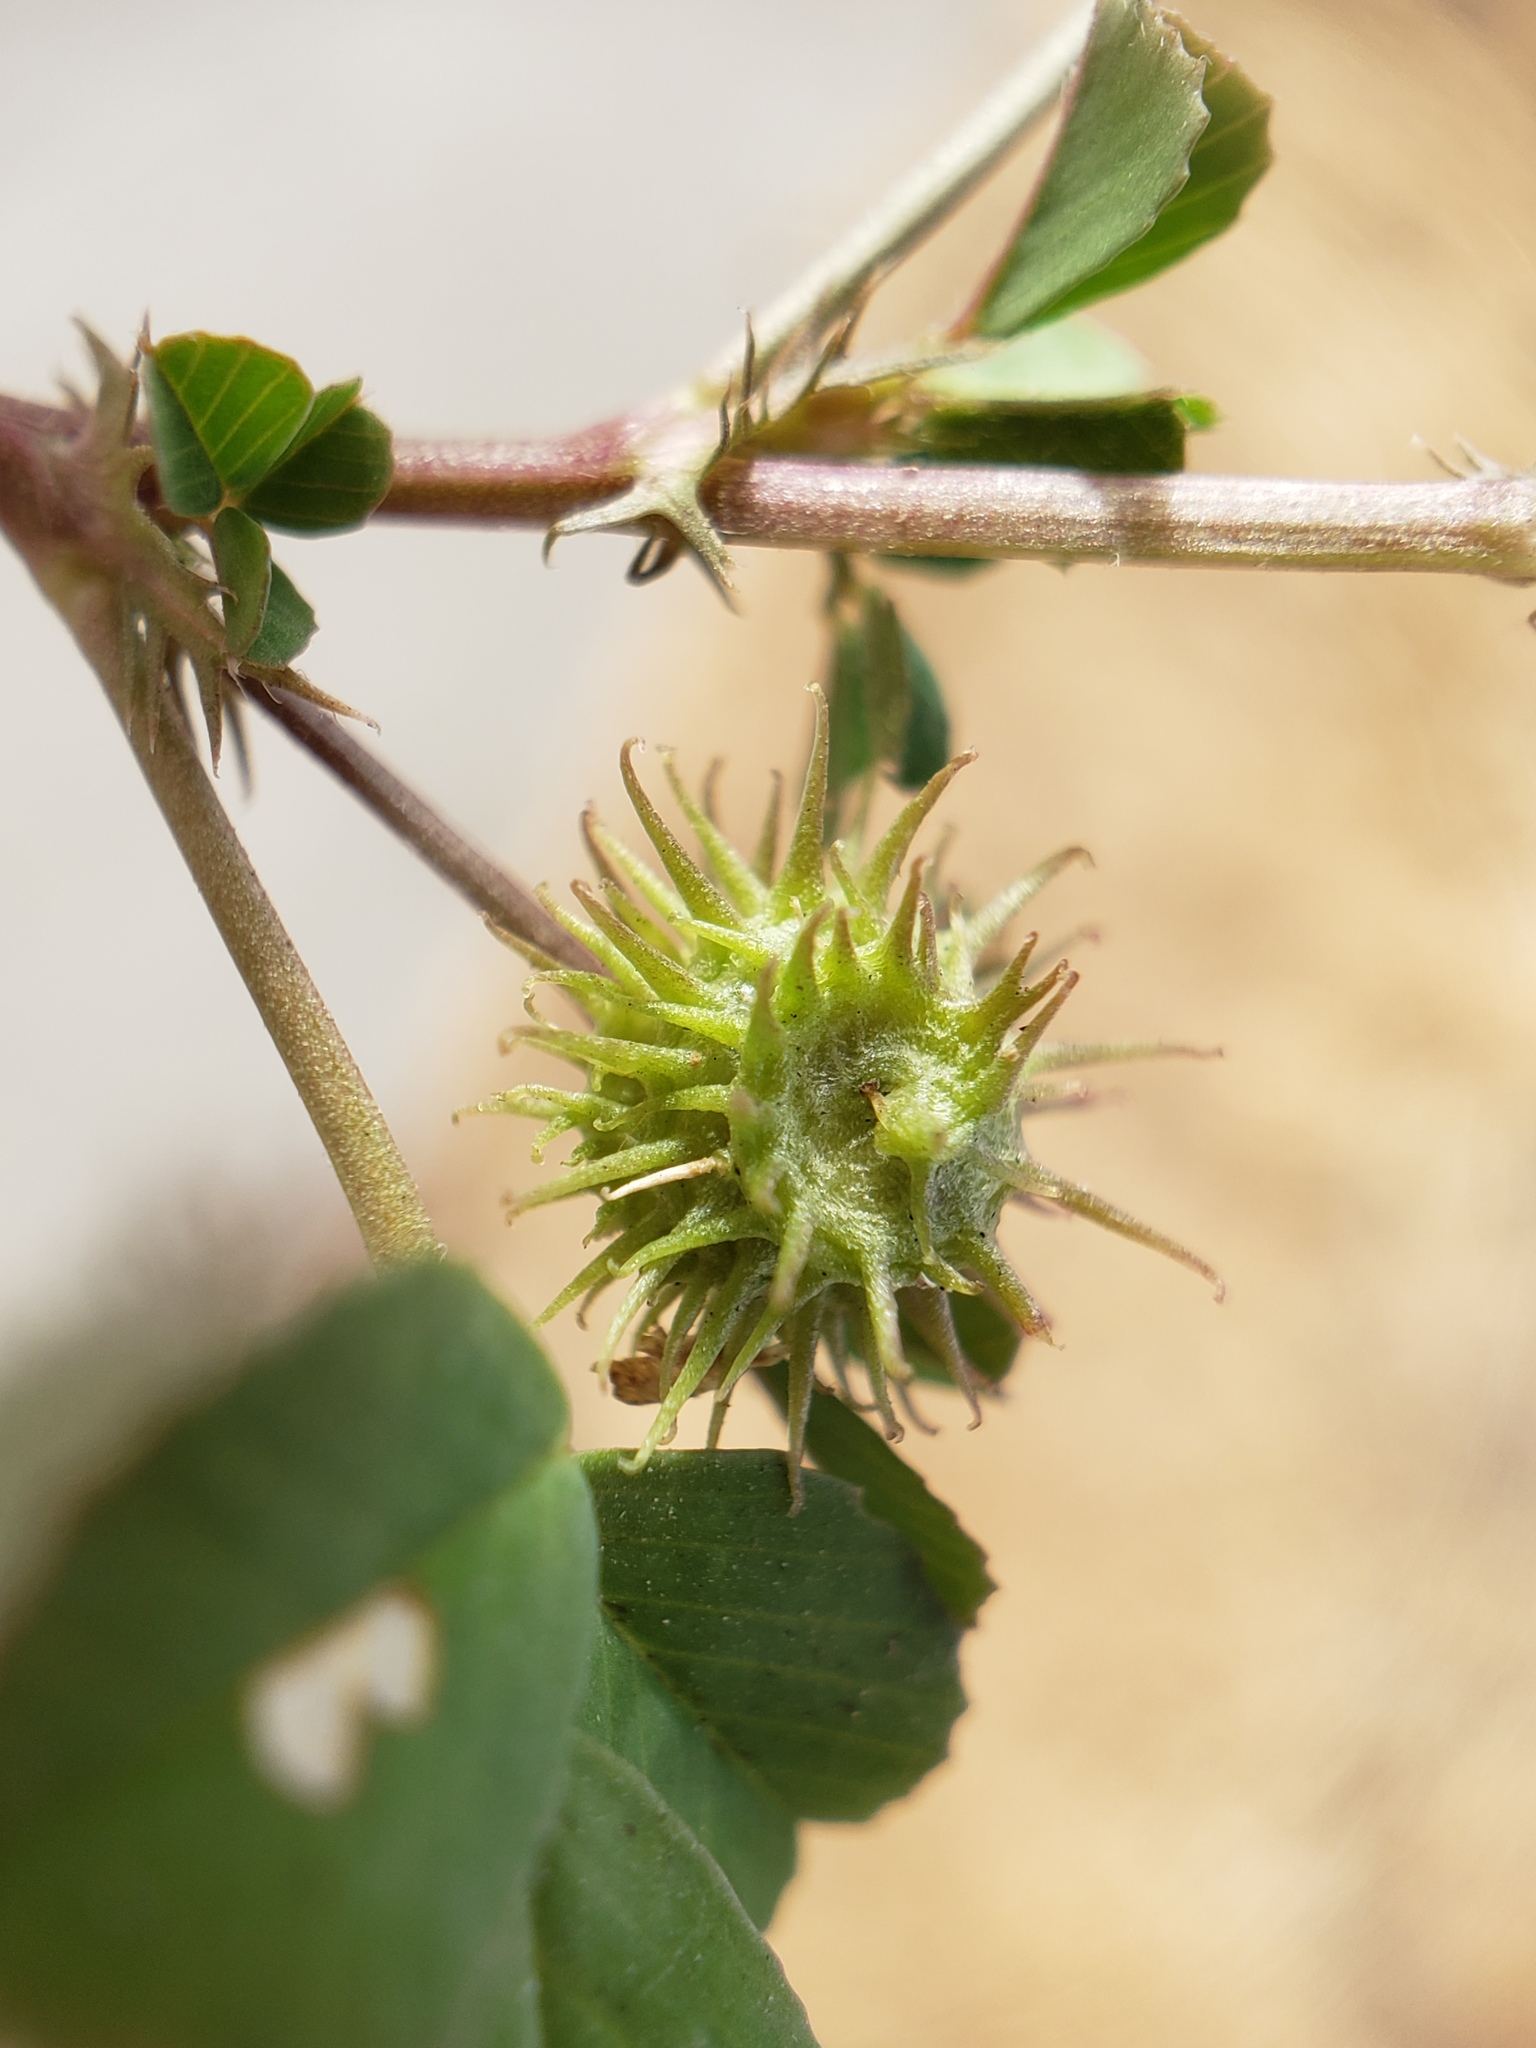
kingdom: Plantae
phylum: Tracheophyta
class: Magnoliopsida
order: Fabales
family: Fabaceae
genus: Medicago
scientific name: Medicago polymorpha
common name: Burclover
